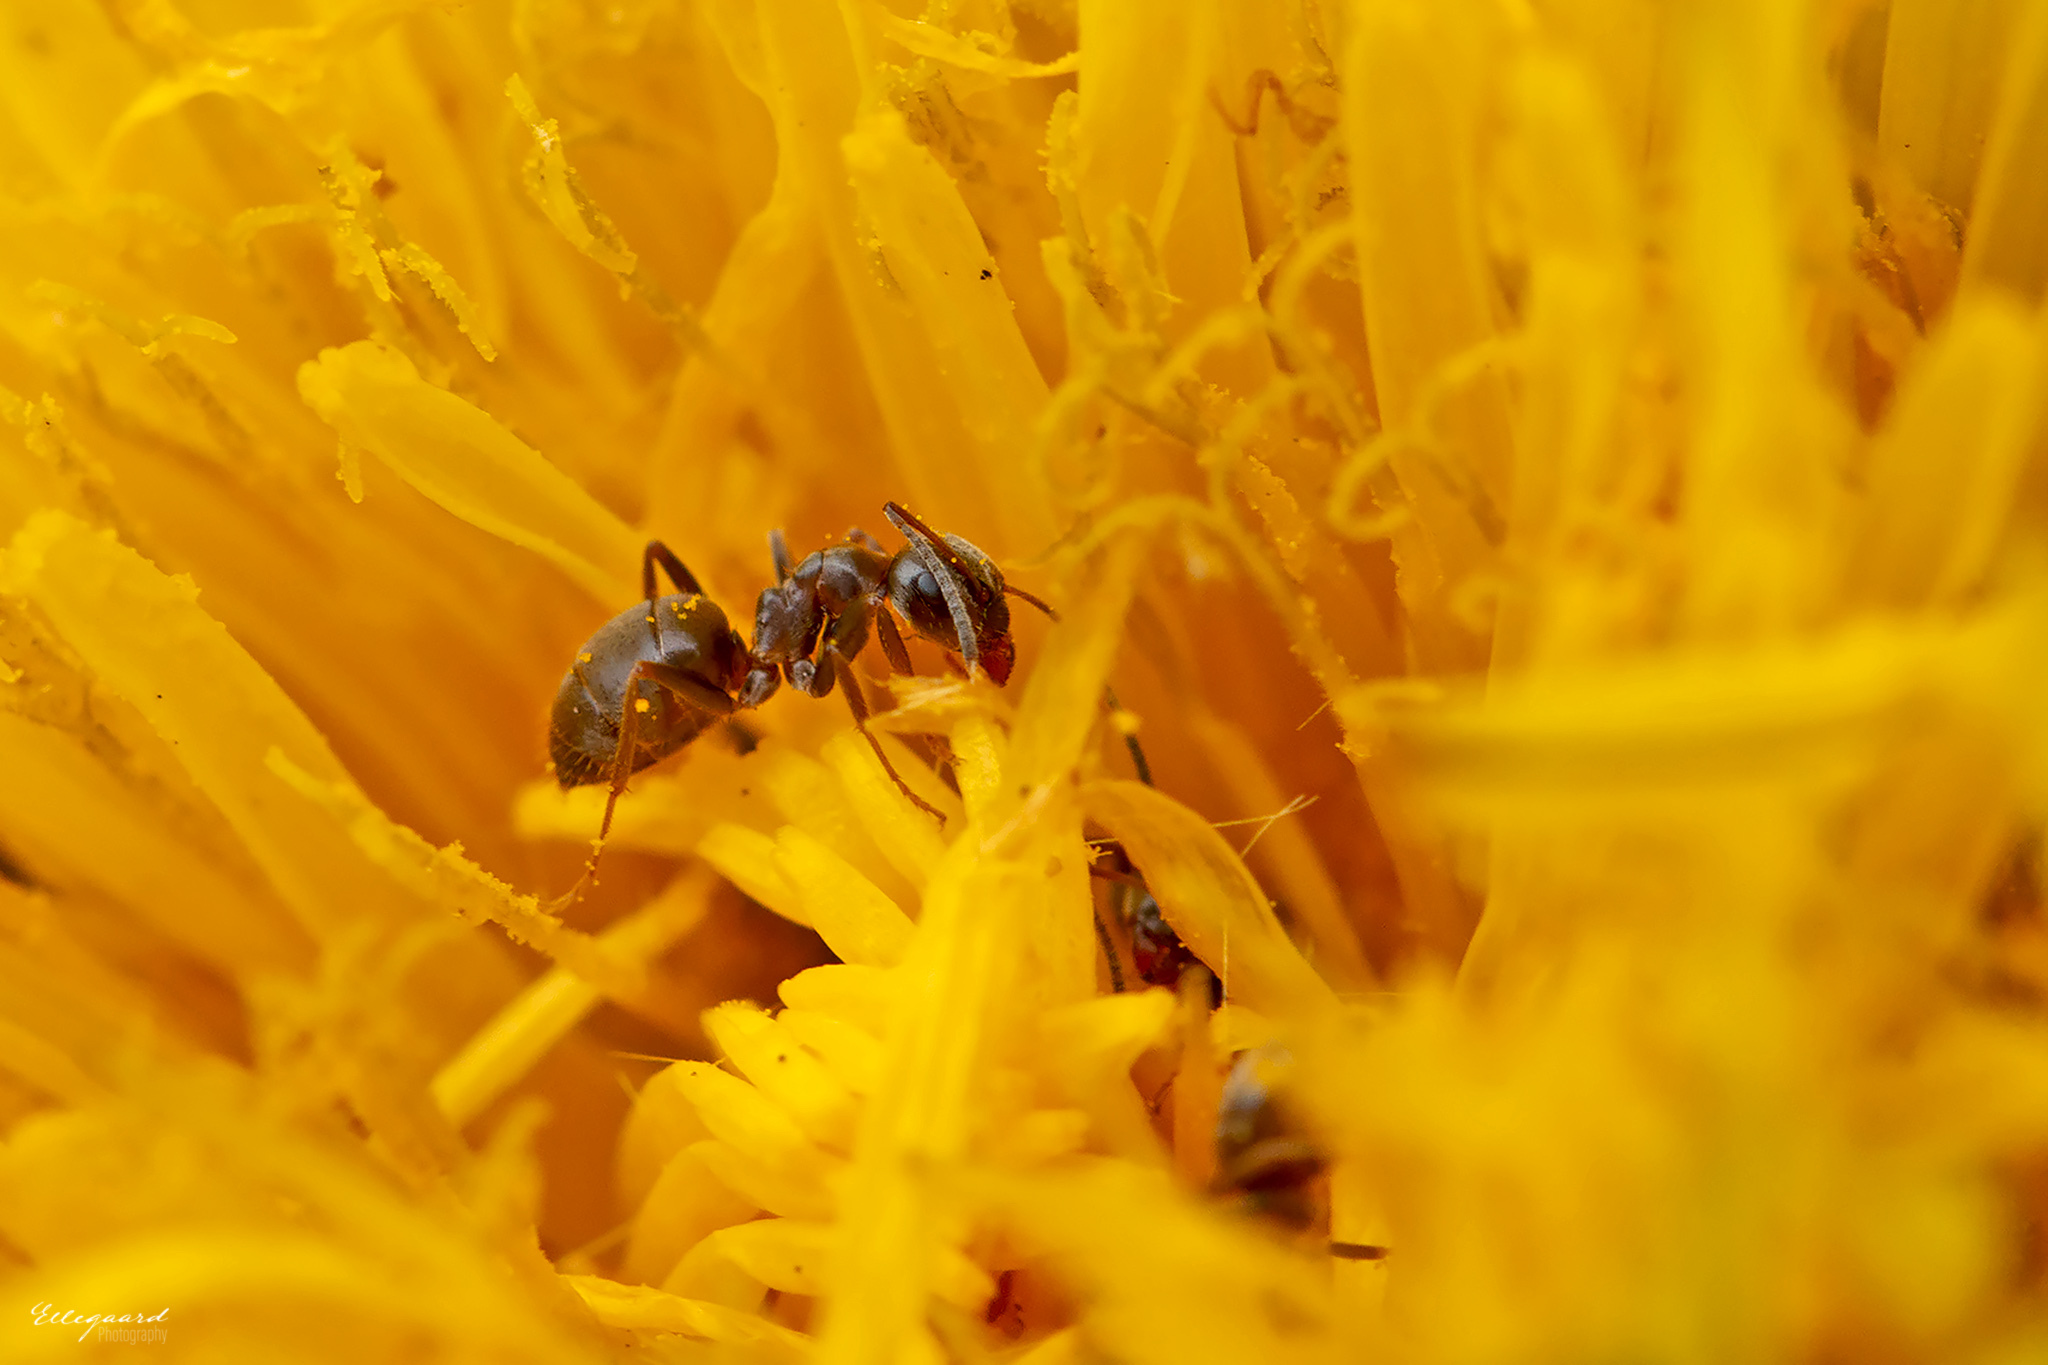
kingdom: Animalia
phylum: Arthropoda
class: Insecta
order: Hymenoptera
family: Formicidae
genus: Lasius
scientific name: Lasius niger
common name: Small black ant
